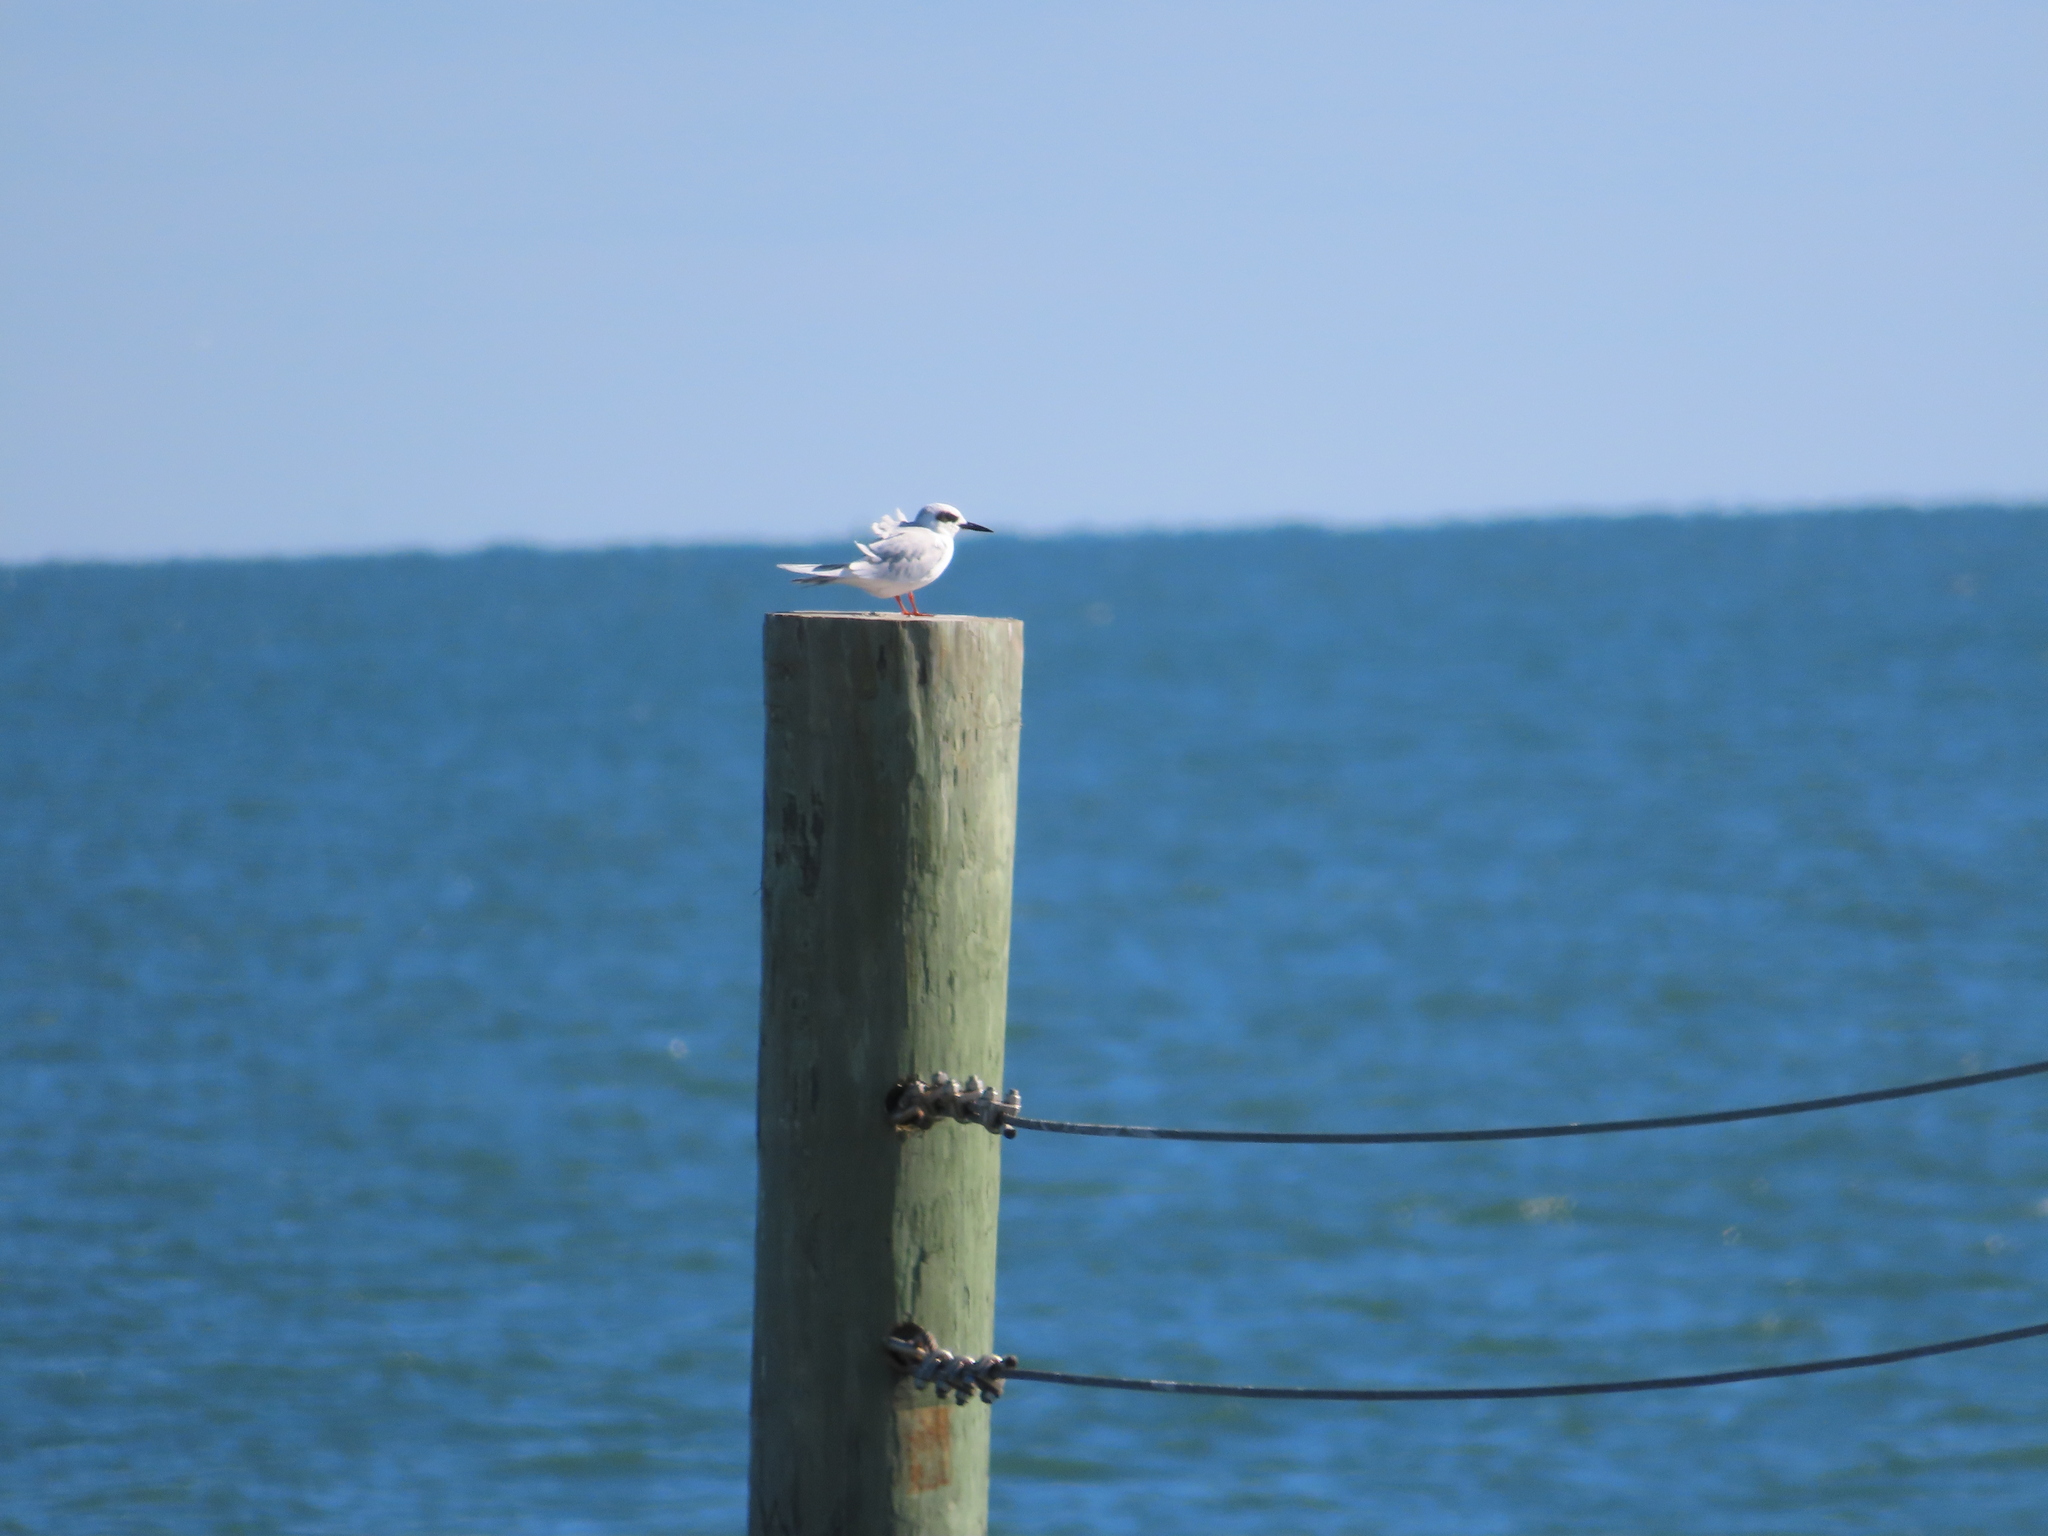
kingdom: Animalia
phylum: Chordata
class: Aves
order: Charadriiformes
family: Laridae
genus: Sterna
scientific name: Sterna forsteri
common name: Forster's tern
